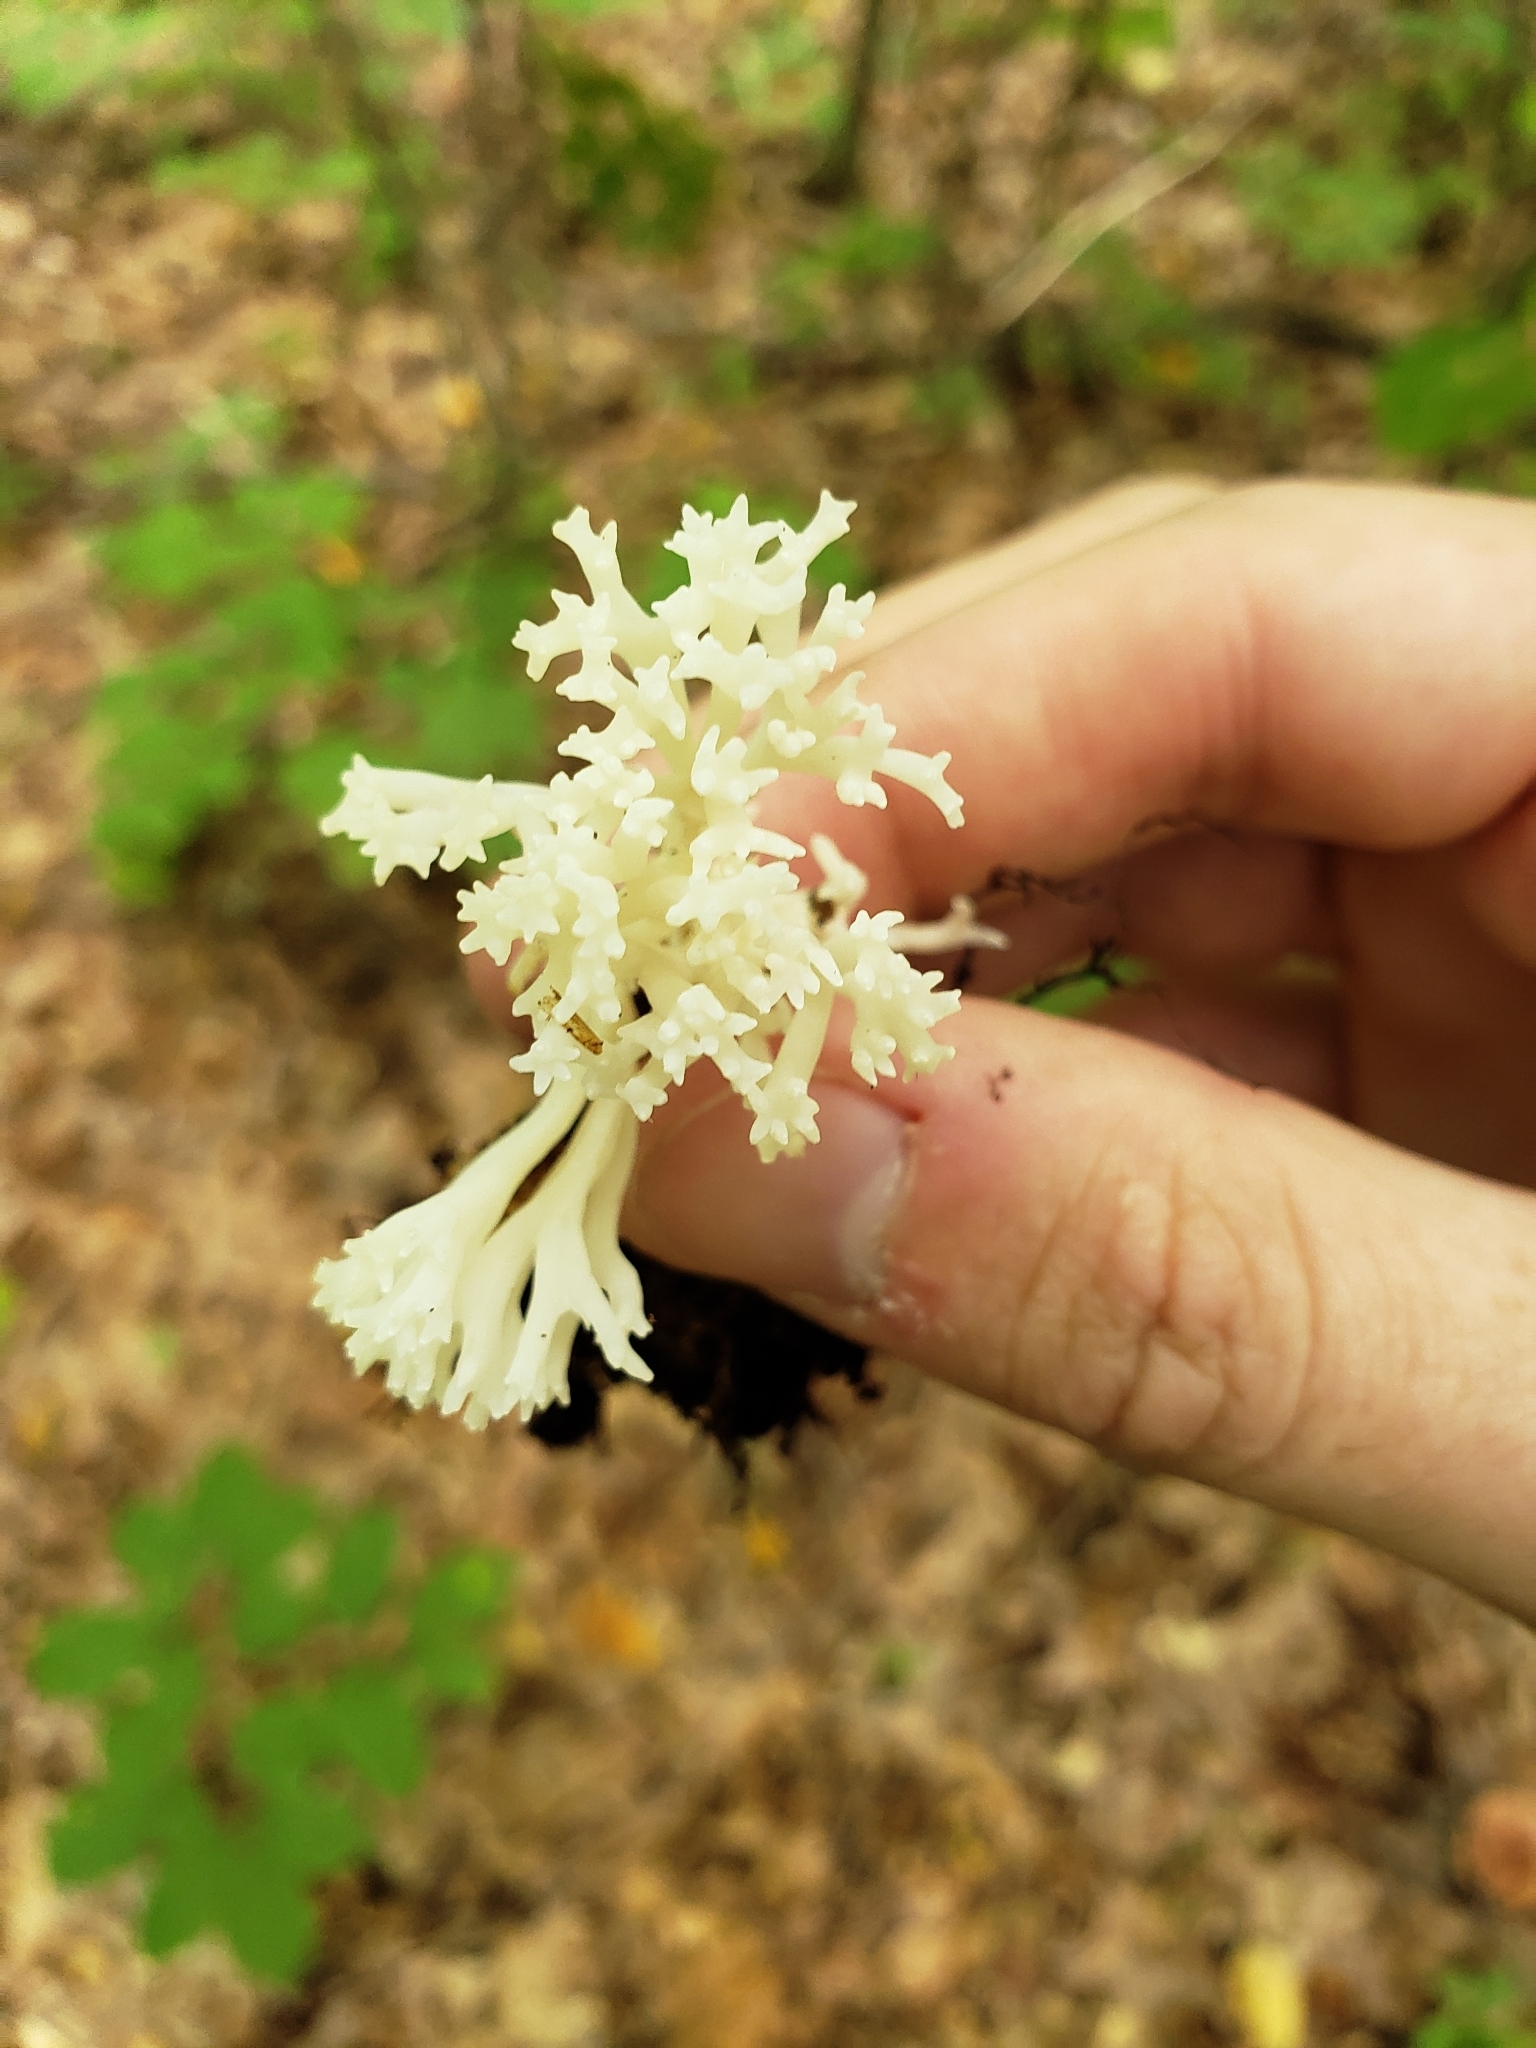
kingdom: Fungi
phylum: Basidiomycota
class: Agaricomycetes
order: Agaricales
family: Clavariaceae
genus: Ramariopsis
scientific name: Ramariopsis kunzei
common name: Ivory coral
